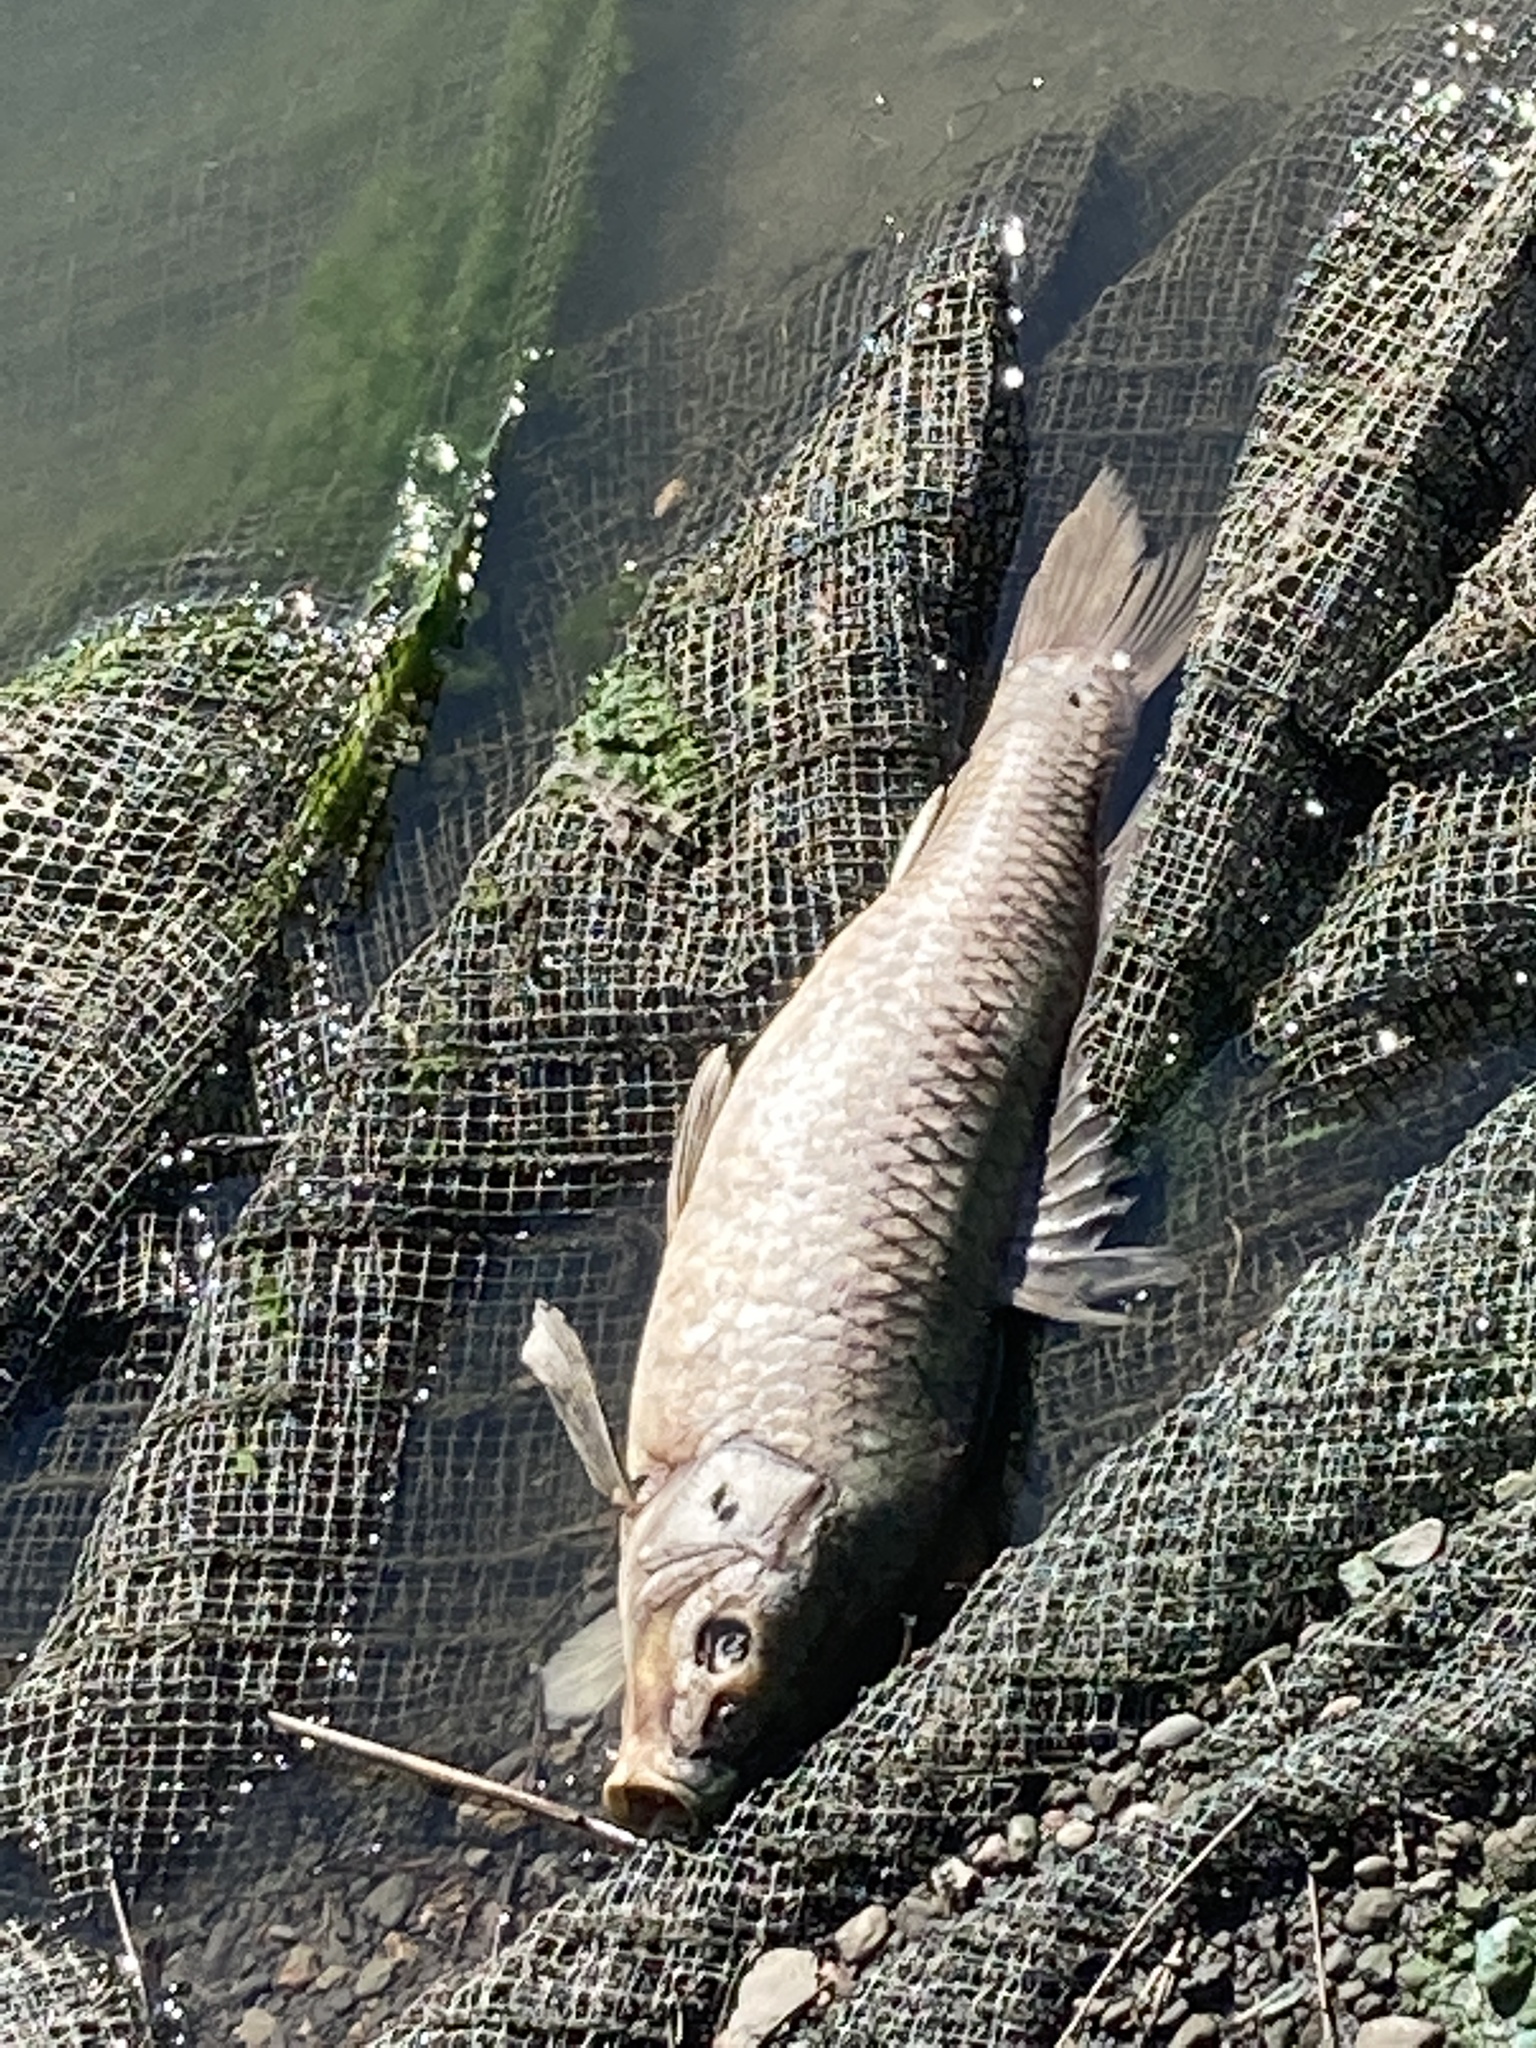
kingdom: Animalia
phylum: Chordata
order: Cypriniformes
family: Cyprinidae
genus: Cyprinus
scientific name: Cyprinus carpio
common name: Common carp
